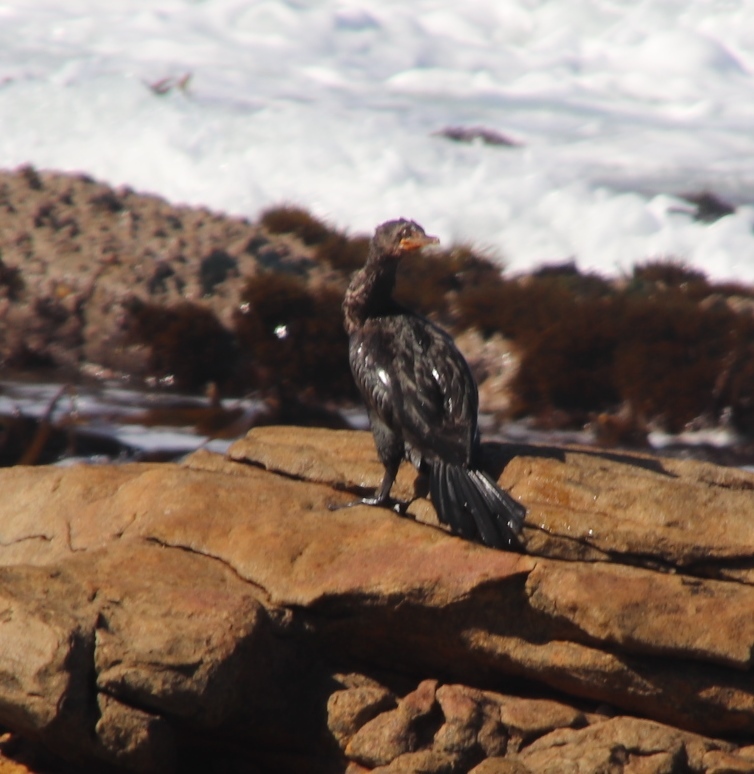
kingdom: Animalia
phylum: Chordata
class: Aves
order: Suliformes
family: Phalacrocoracidae
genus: Microcarbo
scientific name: Microcarbo coronatus
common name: Crowned cormorant
